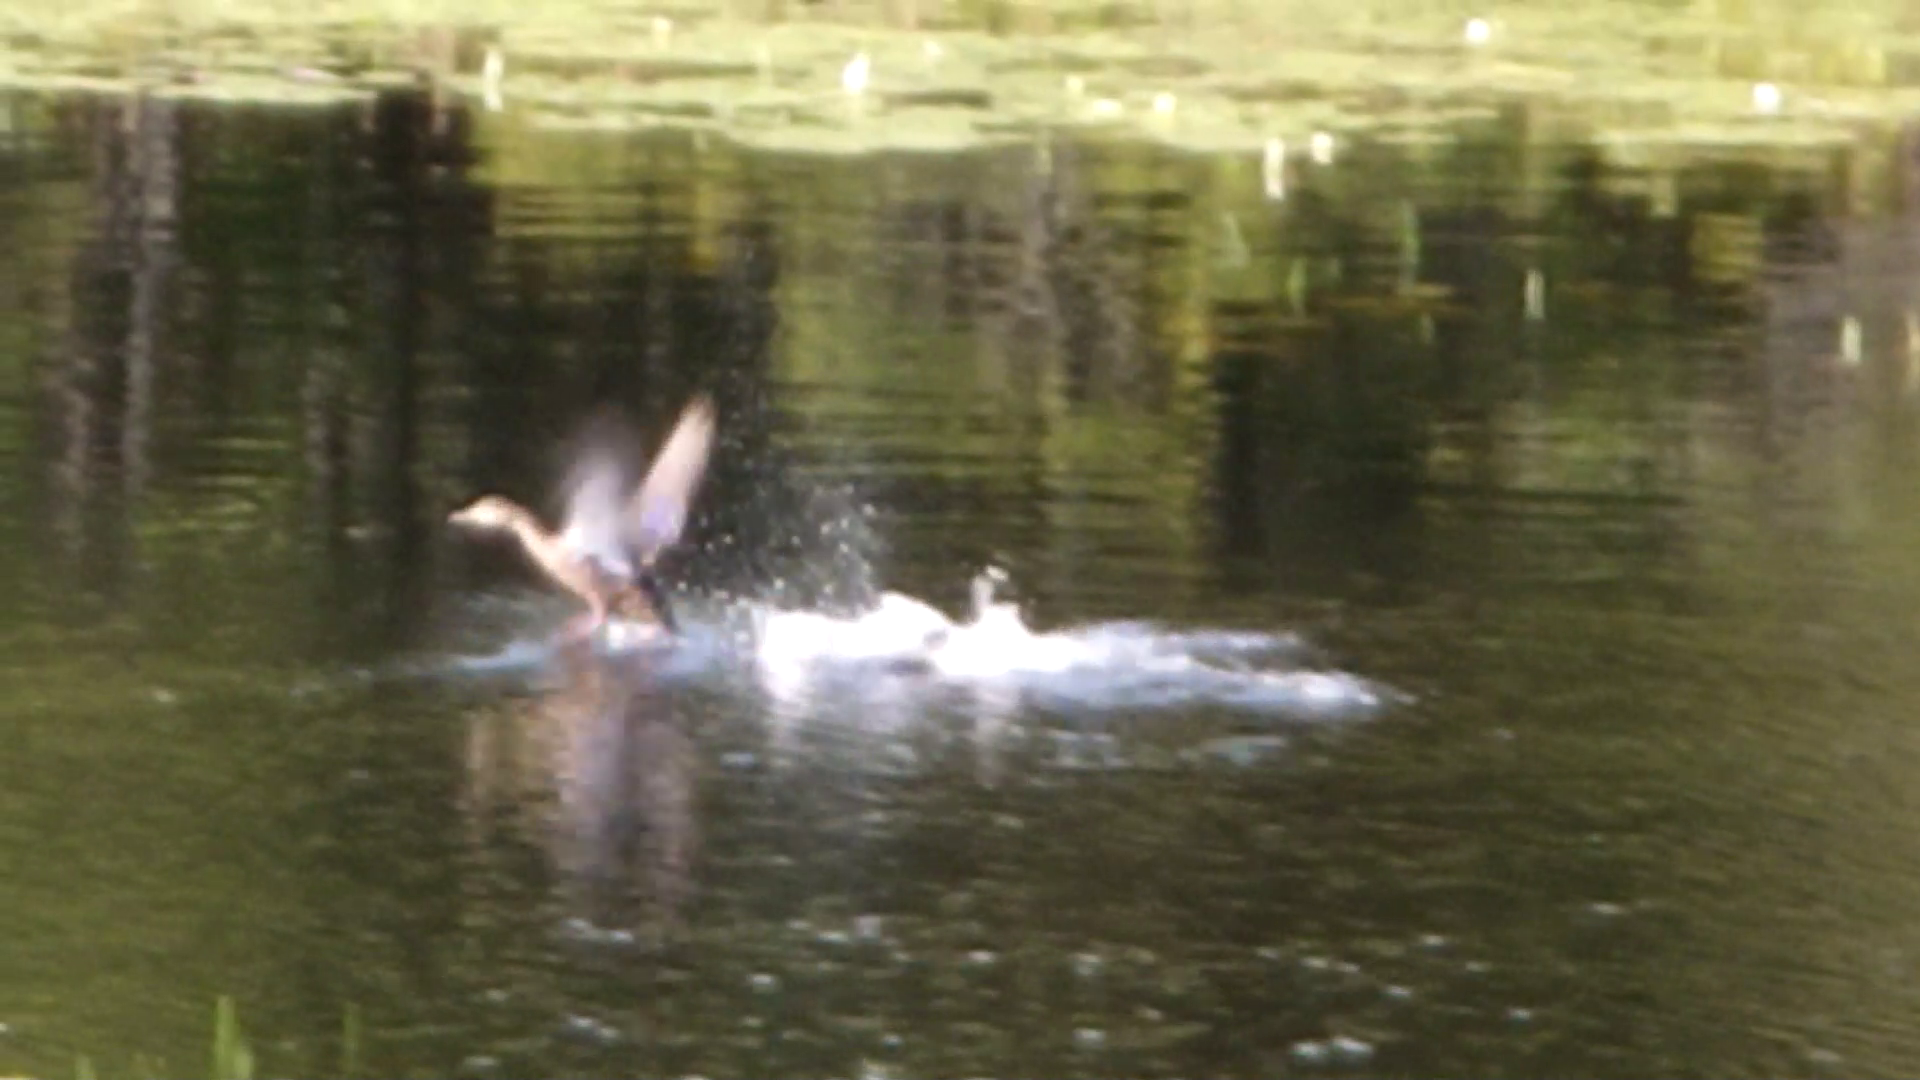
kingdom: Animalia
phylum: Chordata
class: Aves
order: Anseriformes
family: Anatidae
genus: Anas
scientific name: Anas rubripes
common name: American black duck
